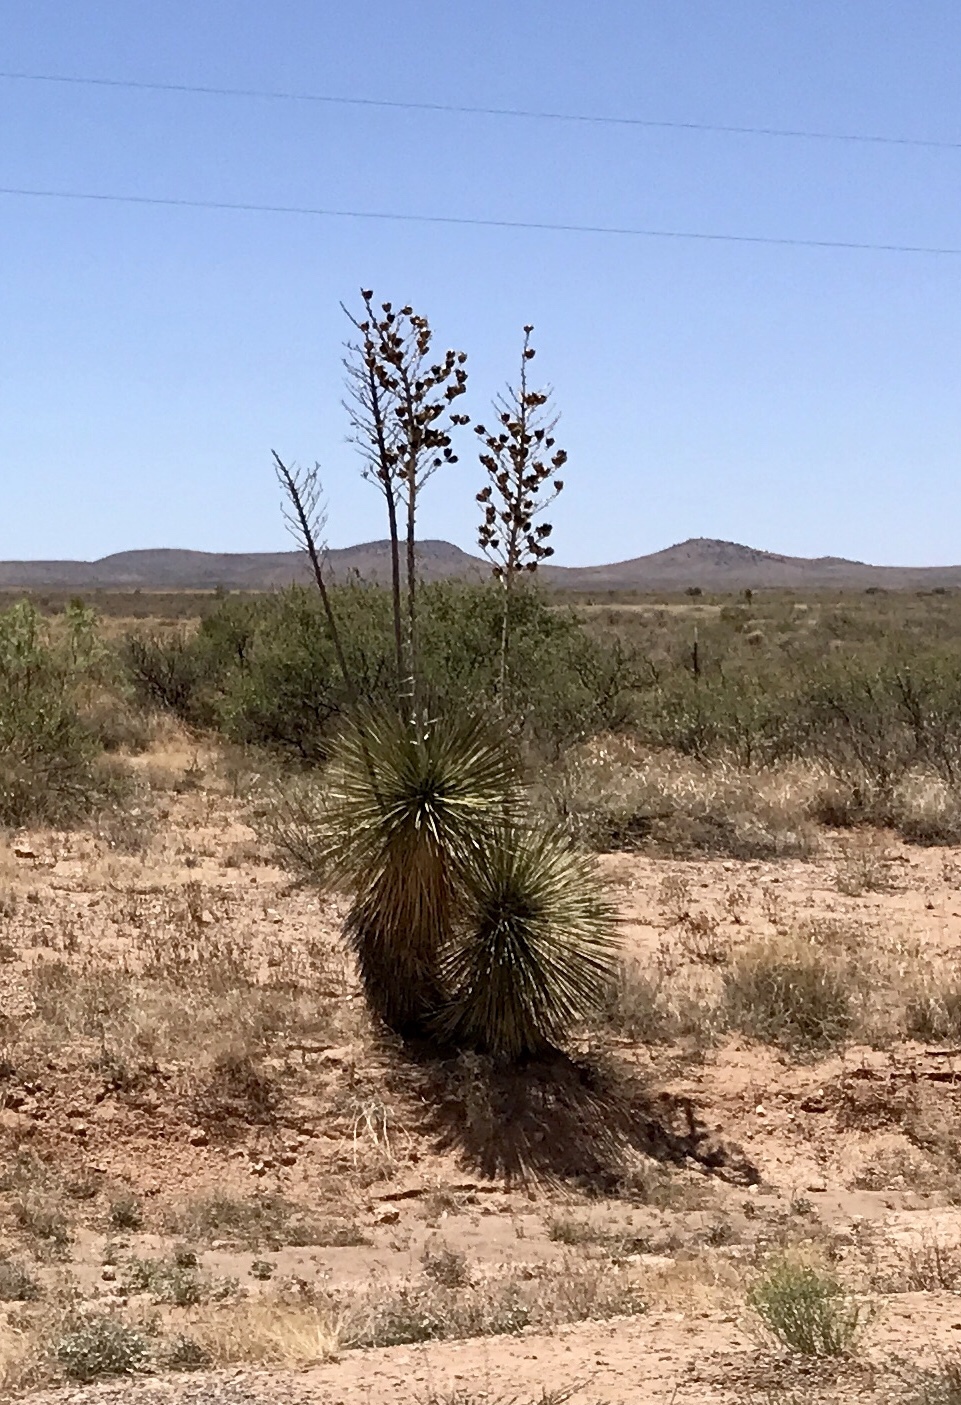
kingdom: Plantae
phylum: Tracheophyta
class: Liliopsida
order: Asparagales
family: Asparagaceae
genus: Yucca
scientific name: Yucca elata
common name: Palmella
